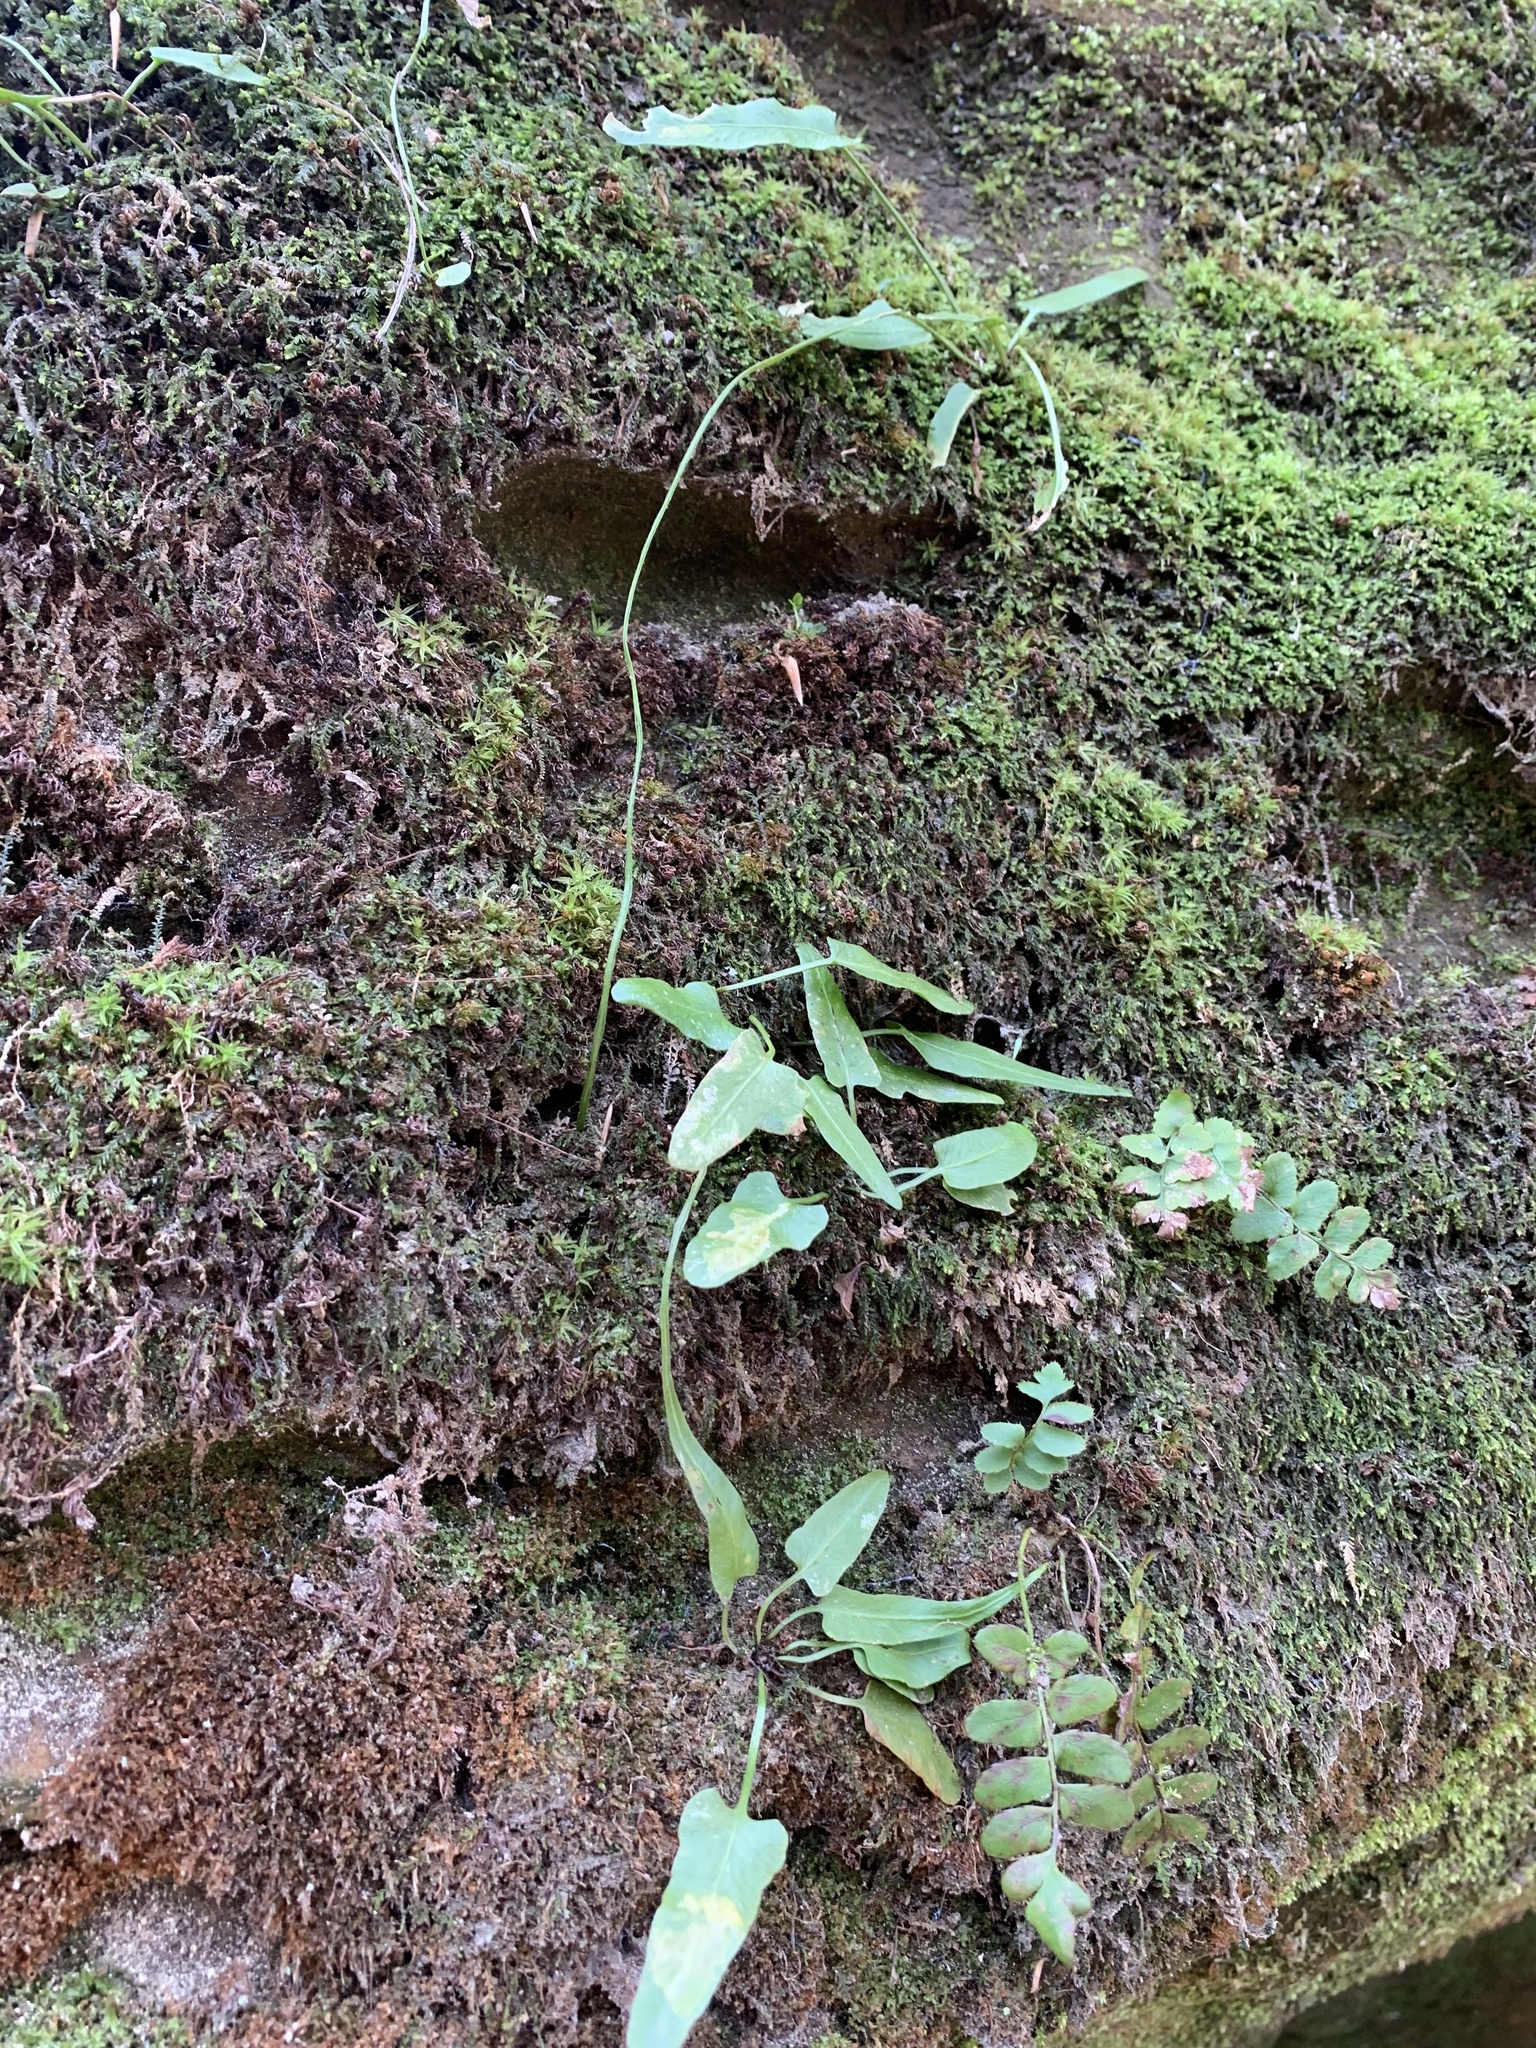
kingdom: Plantae
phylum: Tracheophyta
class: Polypodiopsida
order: Polypodiales
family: Aspleniaceae
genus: Asplenium
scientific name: Asplenium rhizophyllum
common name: Walking fern
